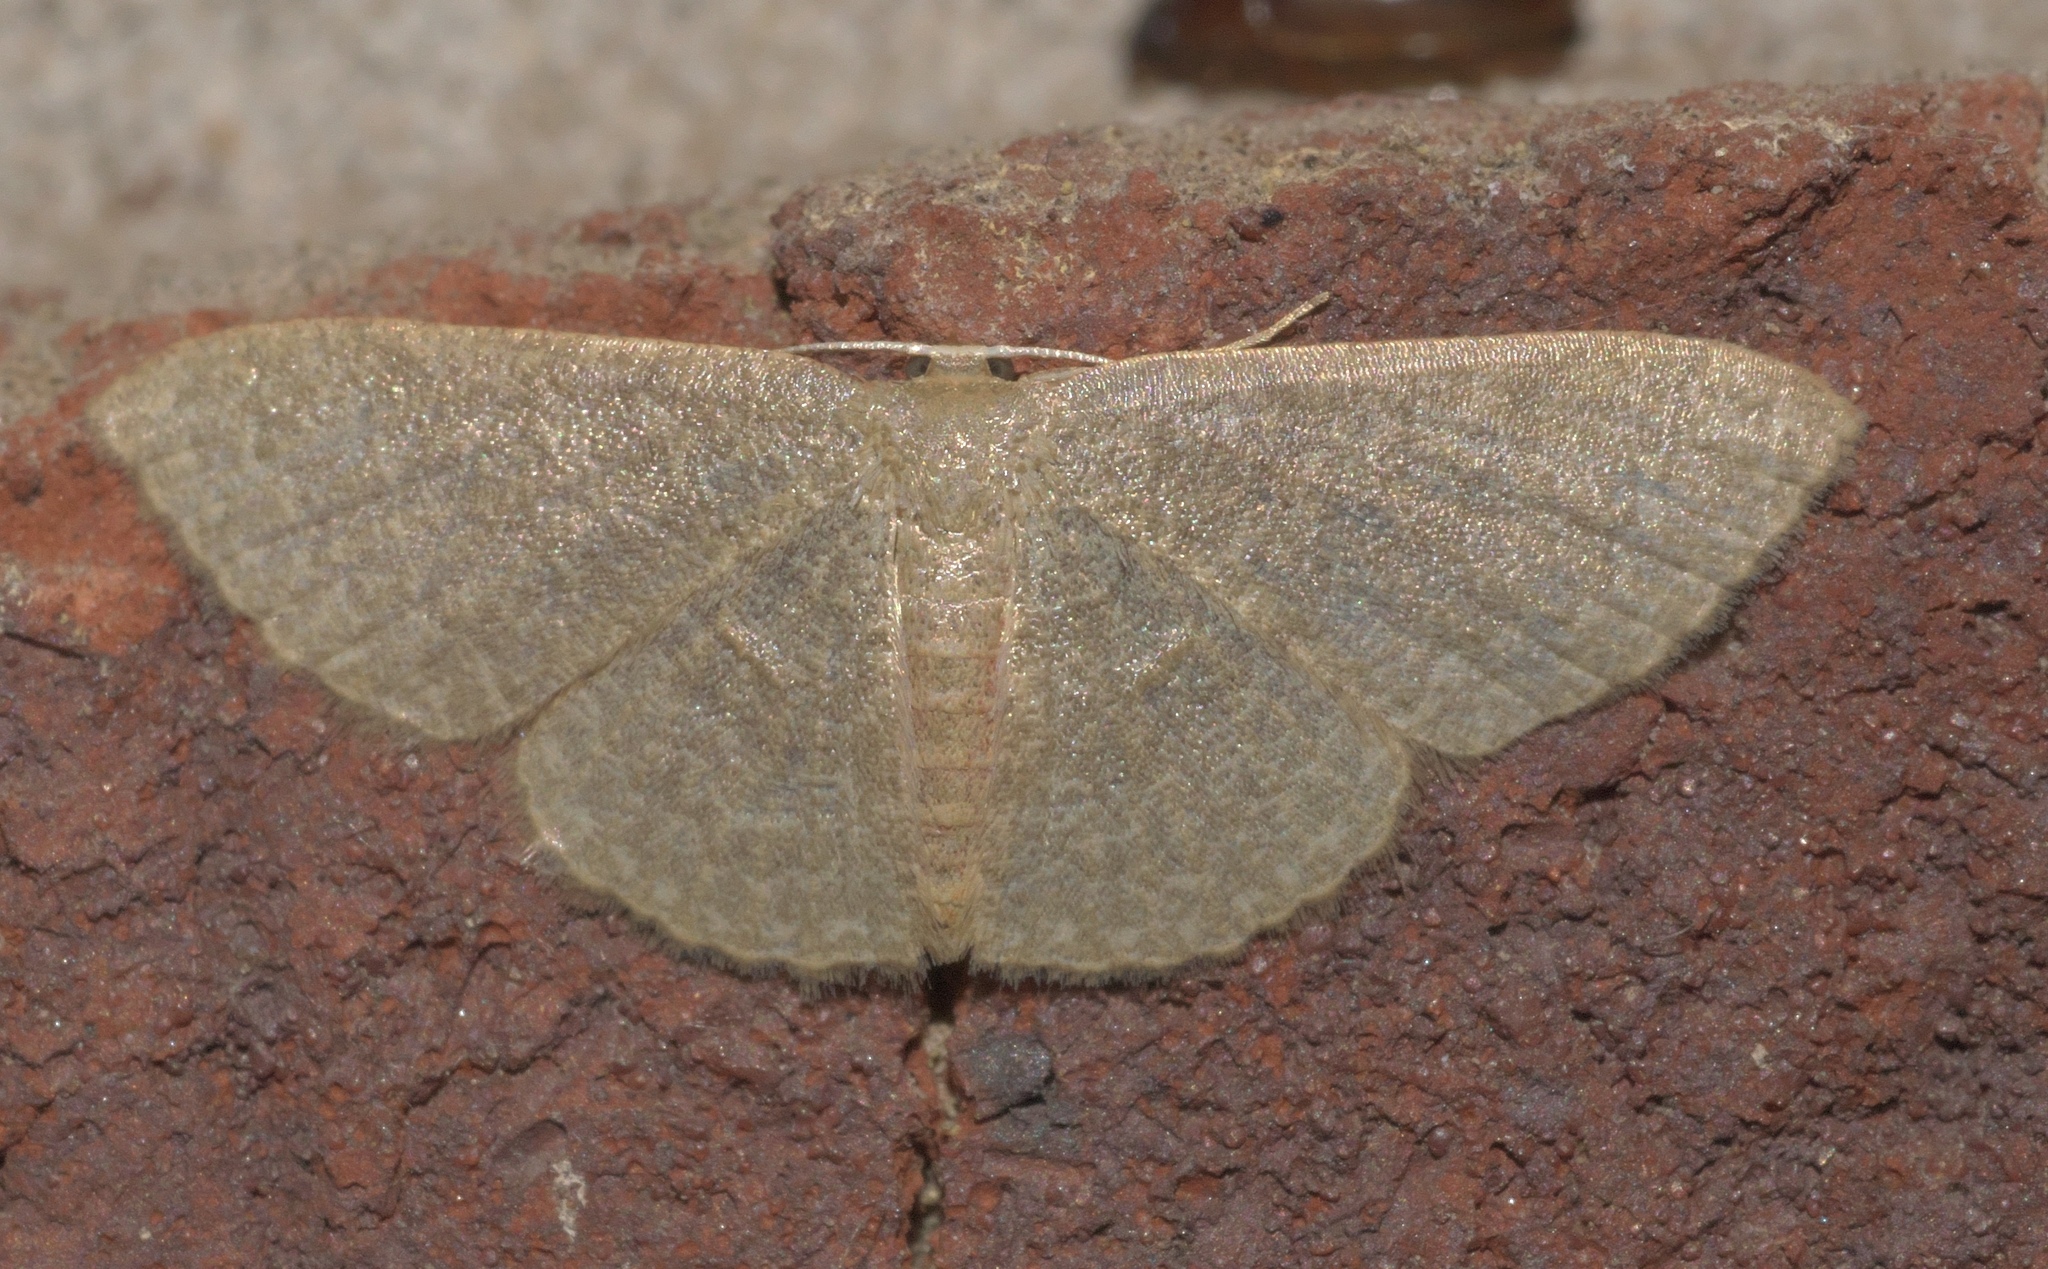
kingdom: Animalia
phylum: Arthropoda
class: Insecta
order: Lepidoptera
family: Geometridae
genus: Pleuroprucha
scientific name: Pleuroprucha insulsaria
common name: Common tan wave
